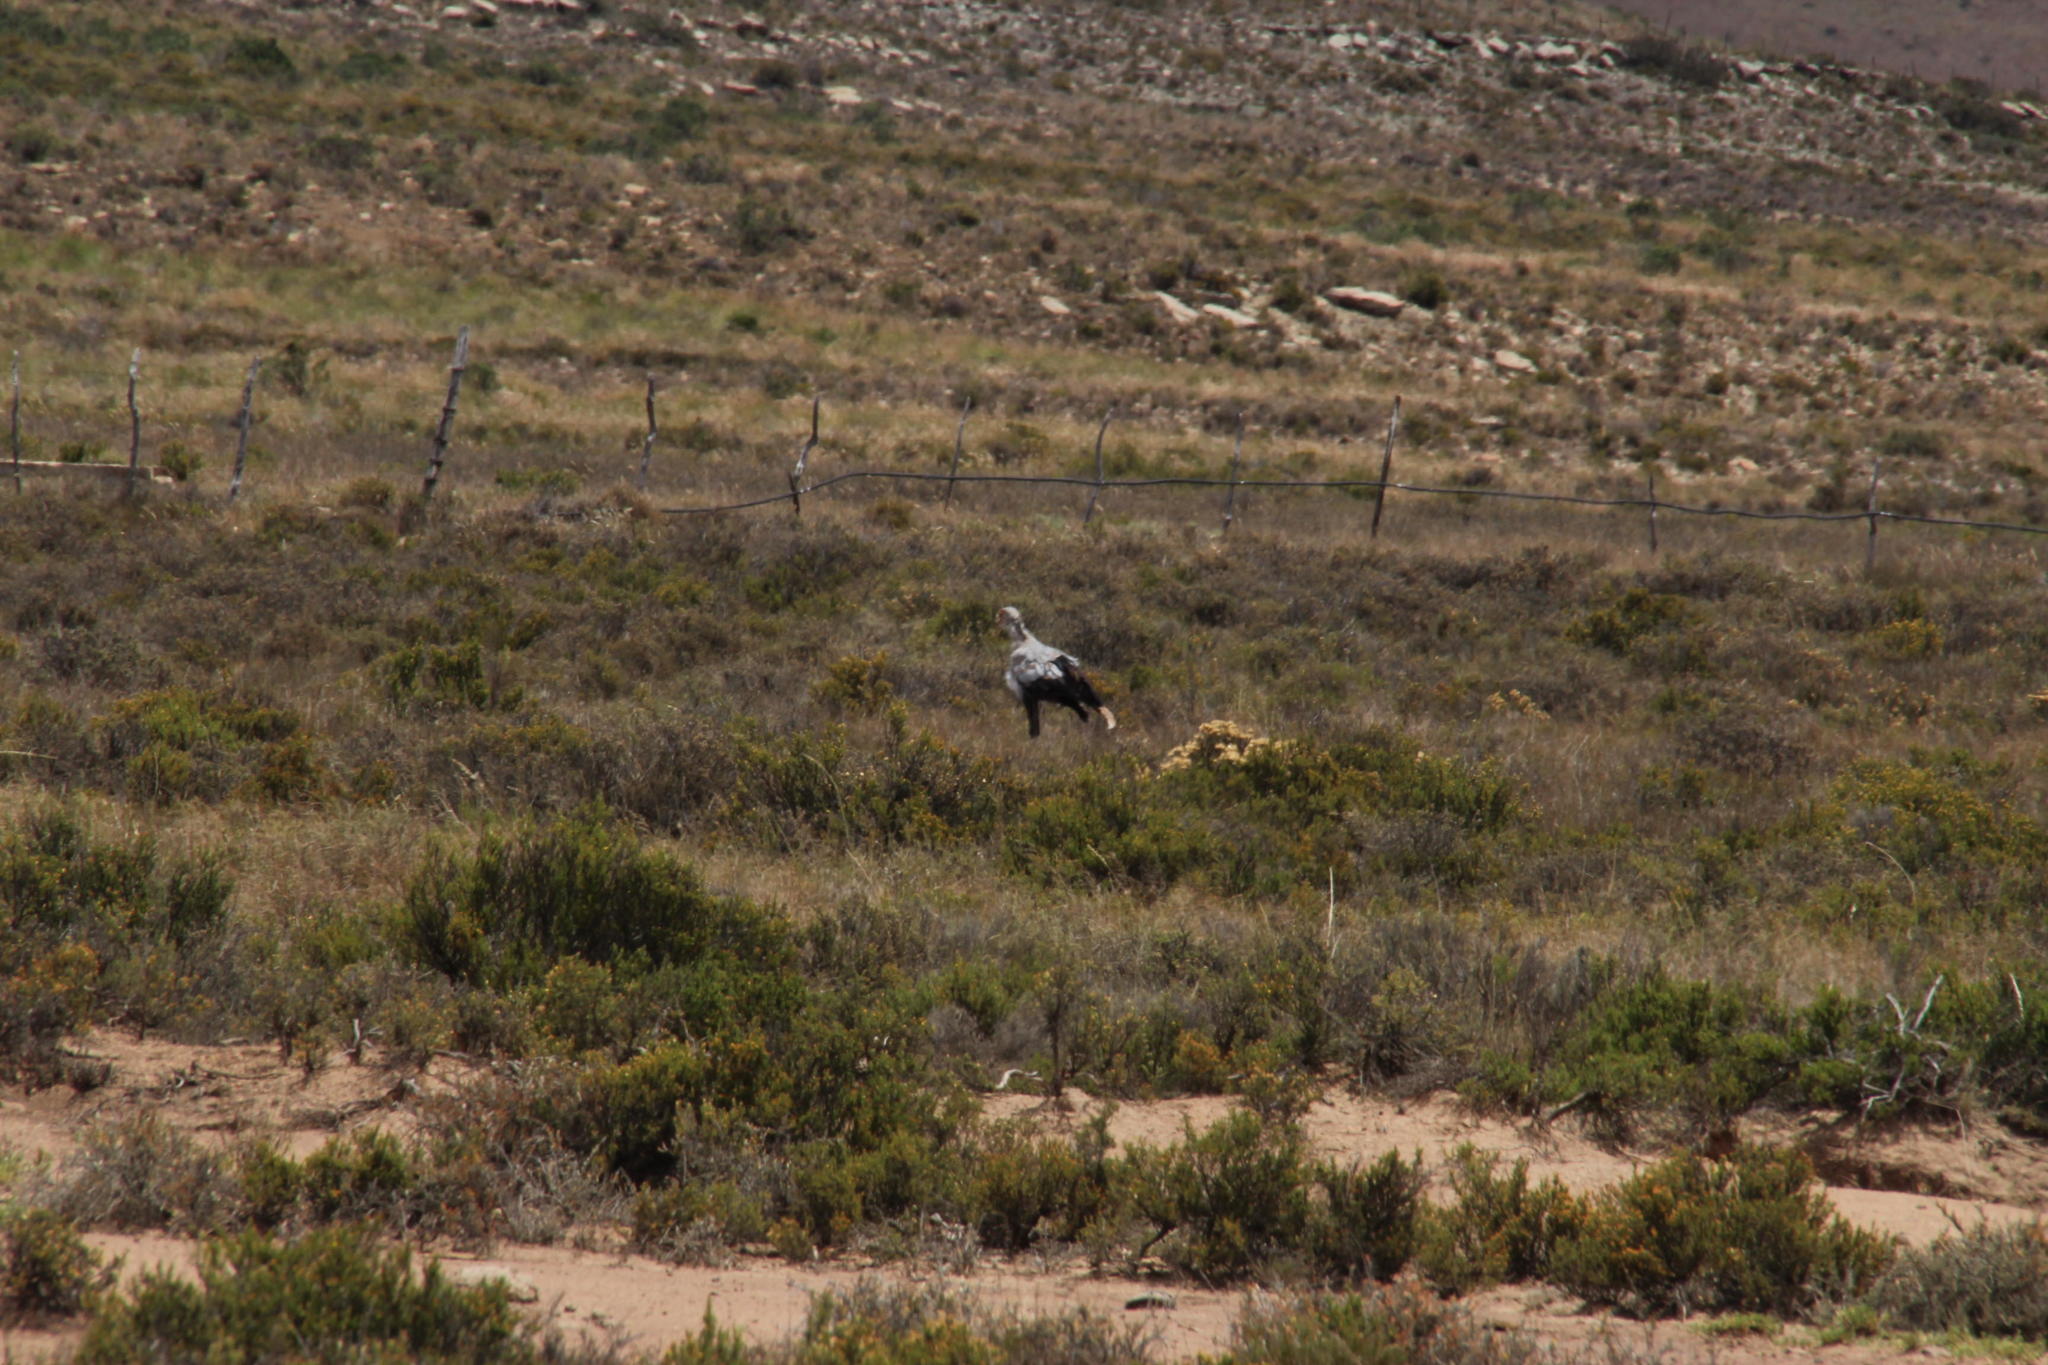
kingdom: Animalia
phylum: Chordata
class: Aves
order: Accipitriformes
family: Sagittariidae
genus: Sagittarius
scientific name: Sagittarius serpentarius
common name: Secretarybird
